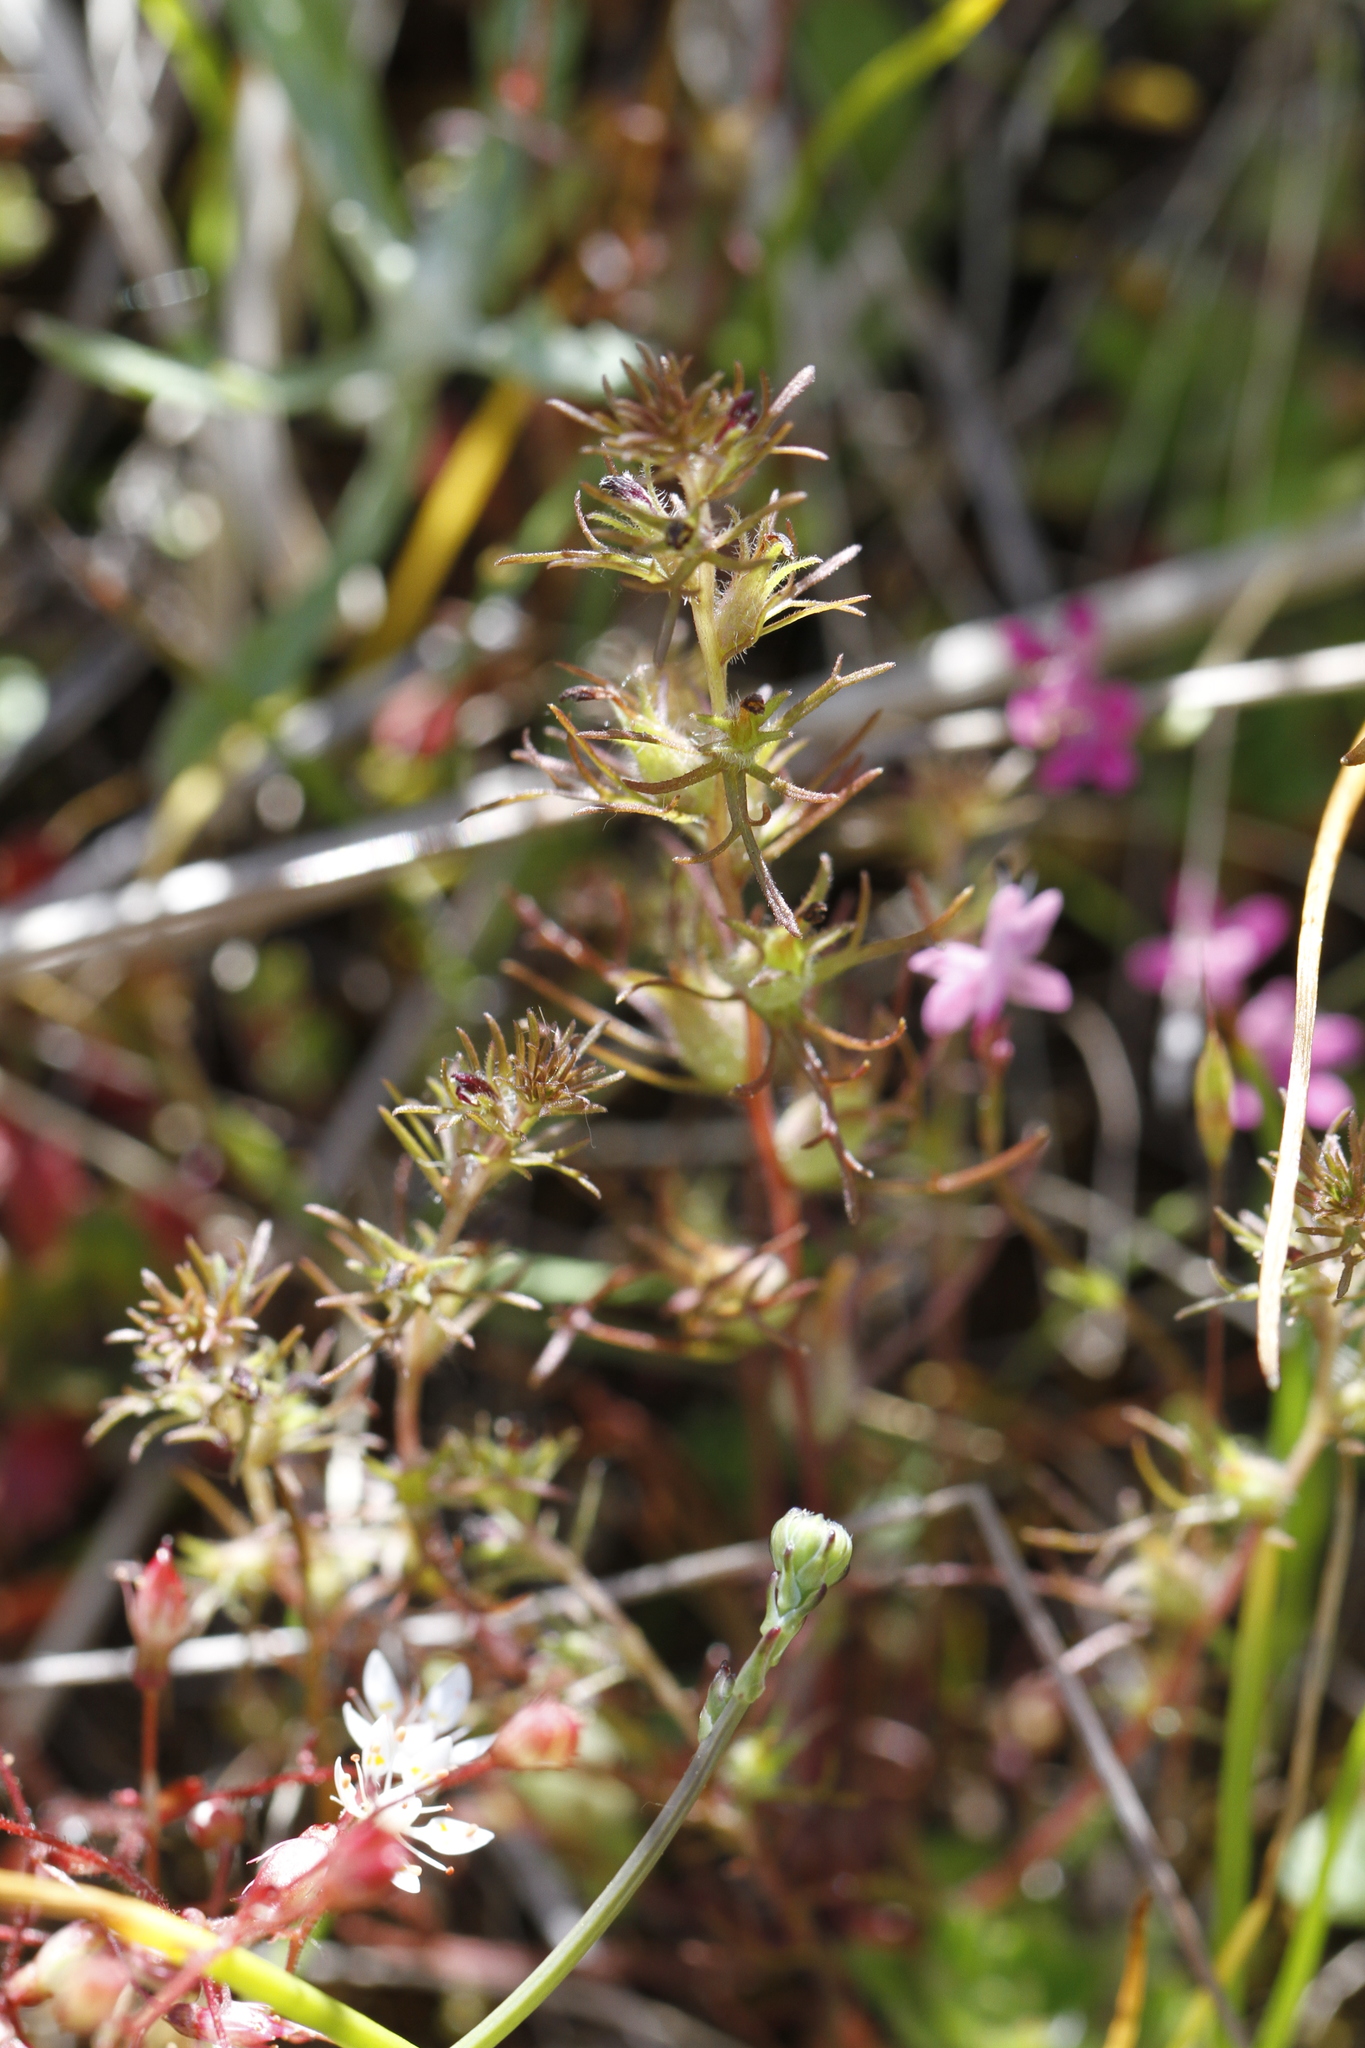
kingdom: Plantae
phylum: Tracheophyta
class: Magnoliopsida
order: Lamiales
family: Orobanchaceae
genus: Triphysaria
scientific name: Triphysaria pusilla
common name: Dwarf false owl-clover
